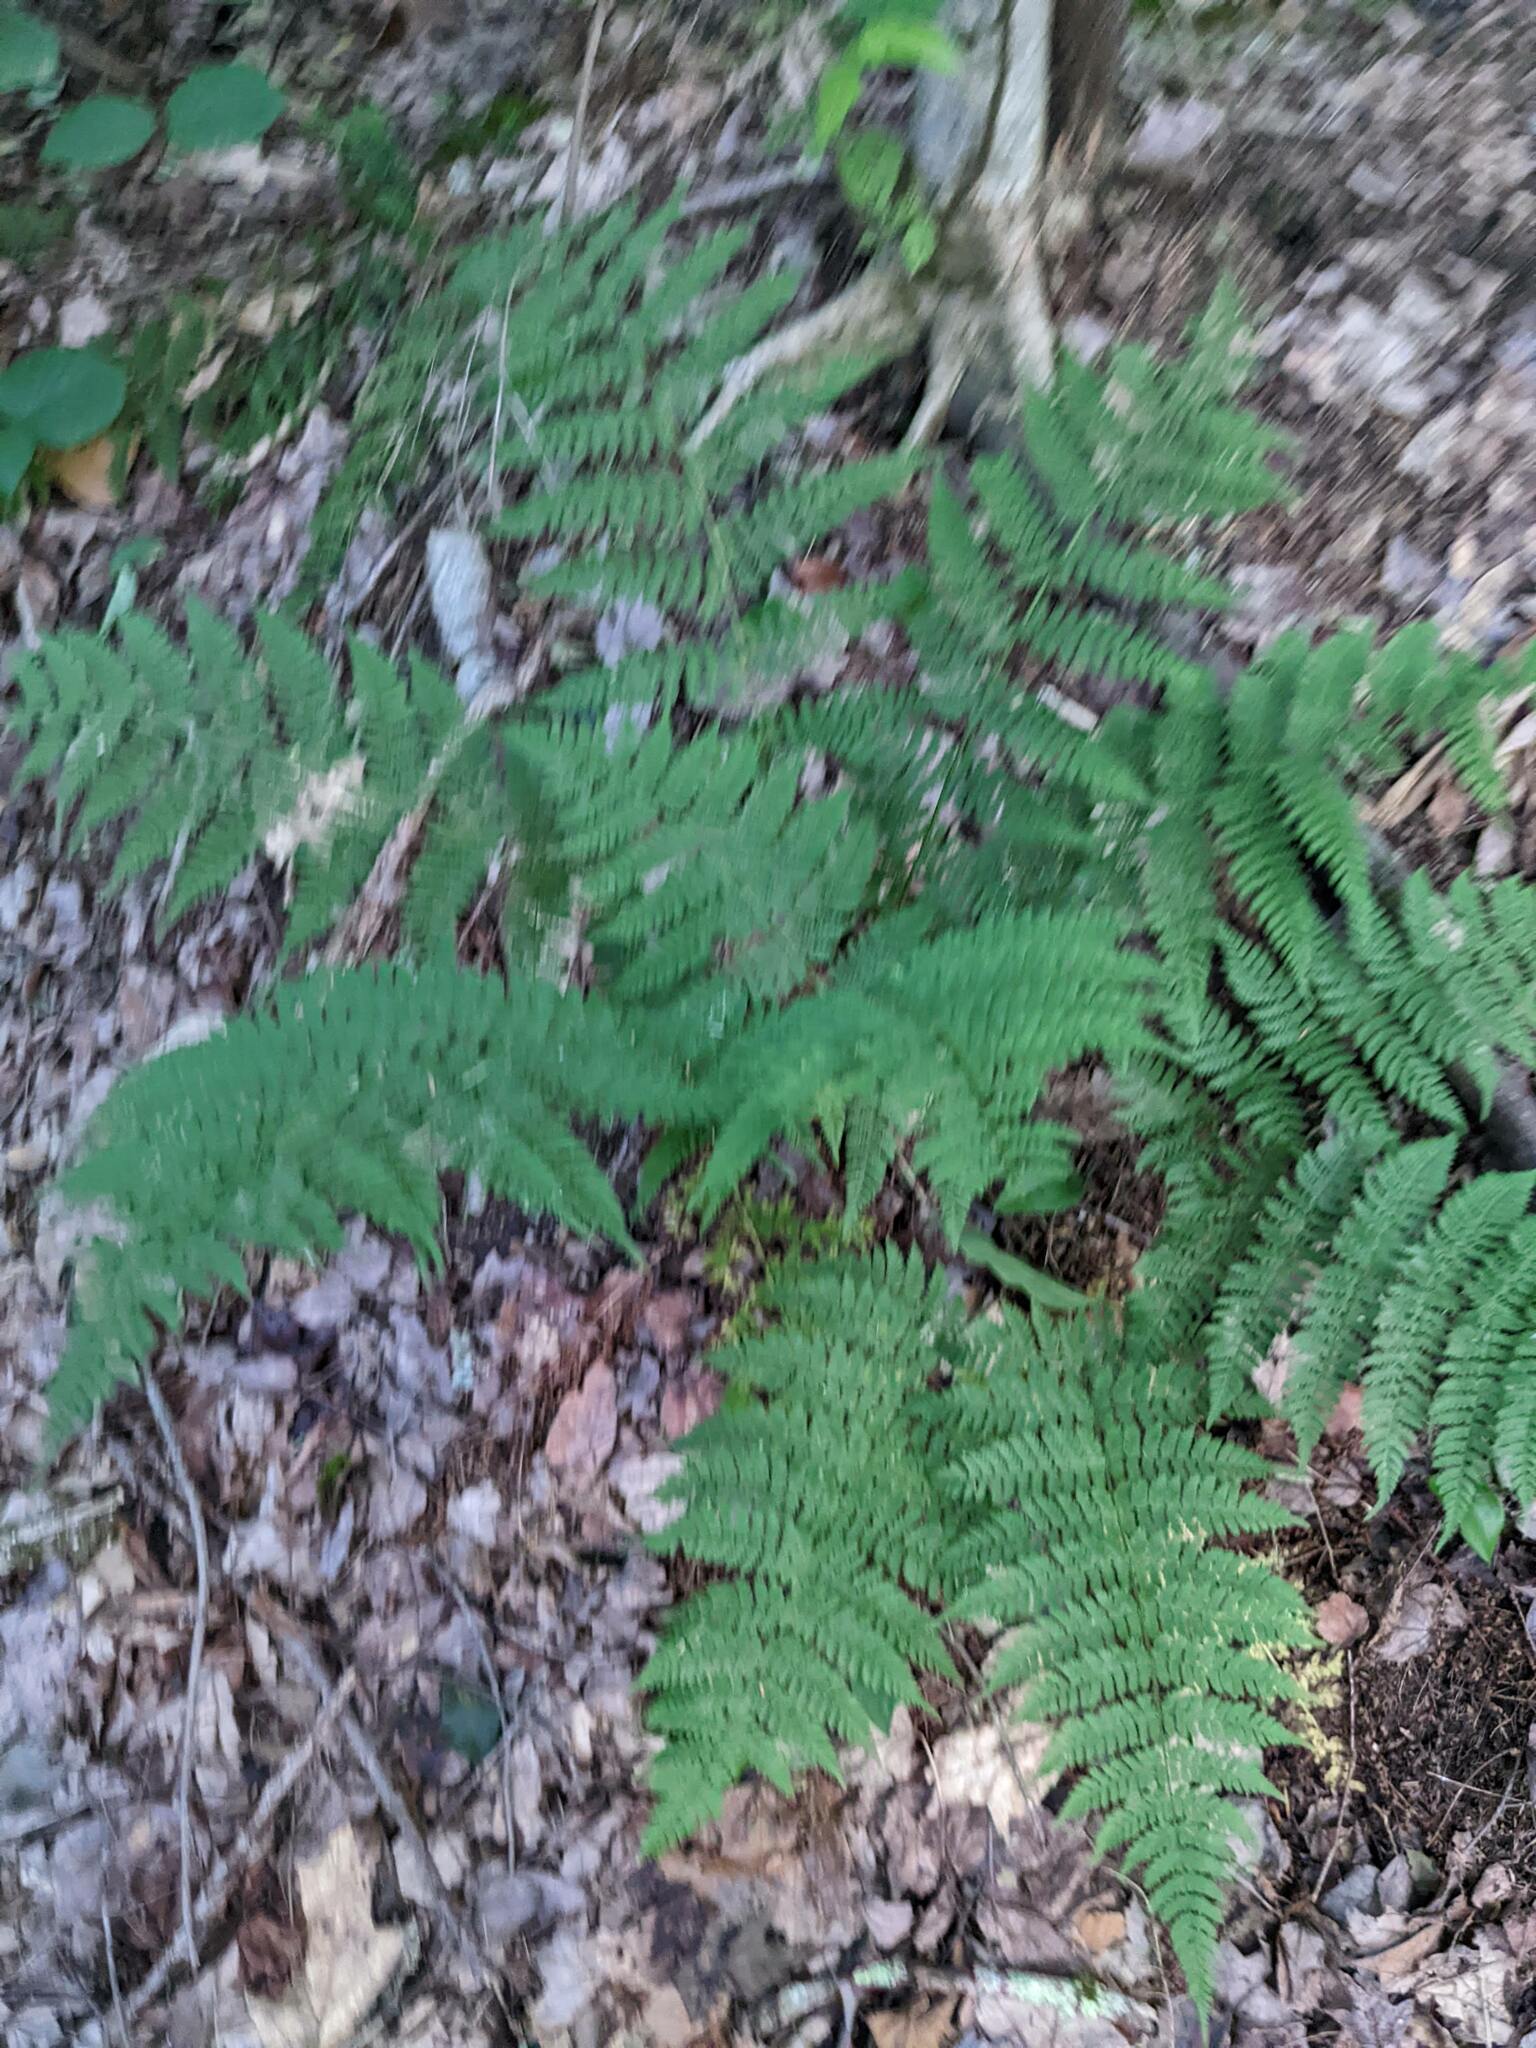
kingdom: Plantae
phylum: Tracheophyta
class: Polypodiopsida
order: Polypodiales
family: Dryopteridaceae
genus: Dryopteris
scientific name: Dryopteris intermedia
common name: Evergreen wood fern
